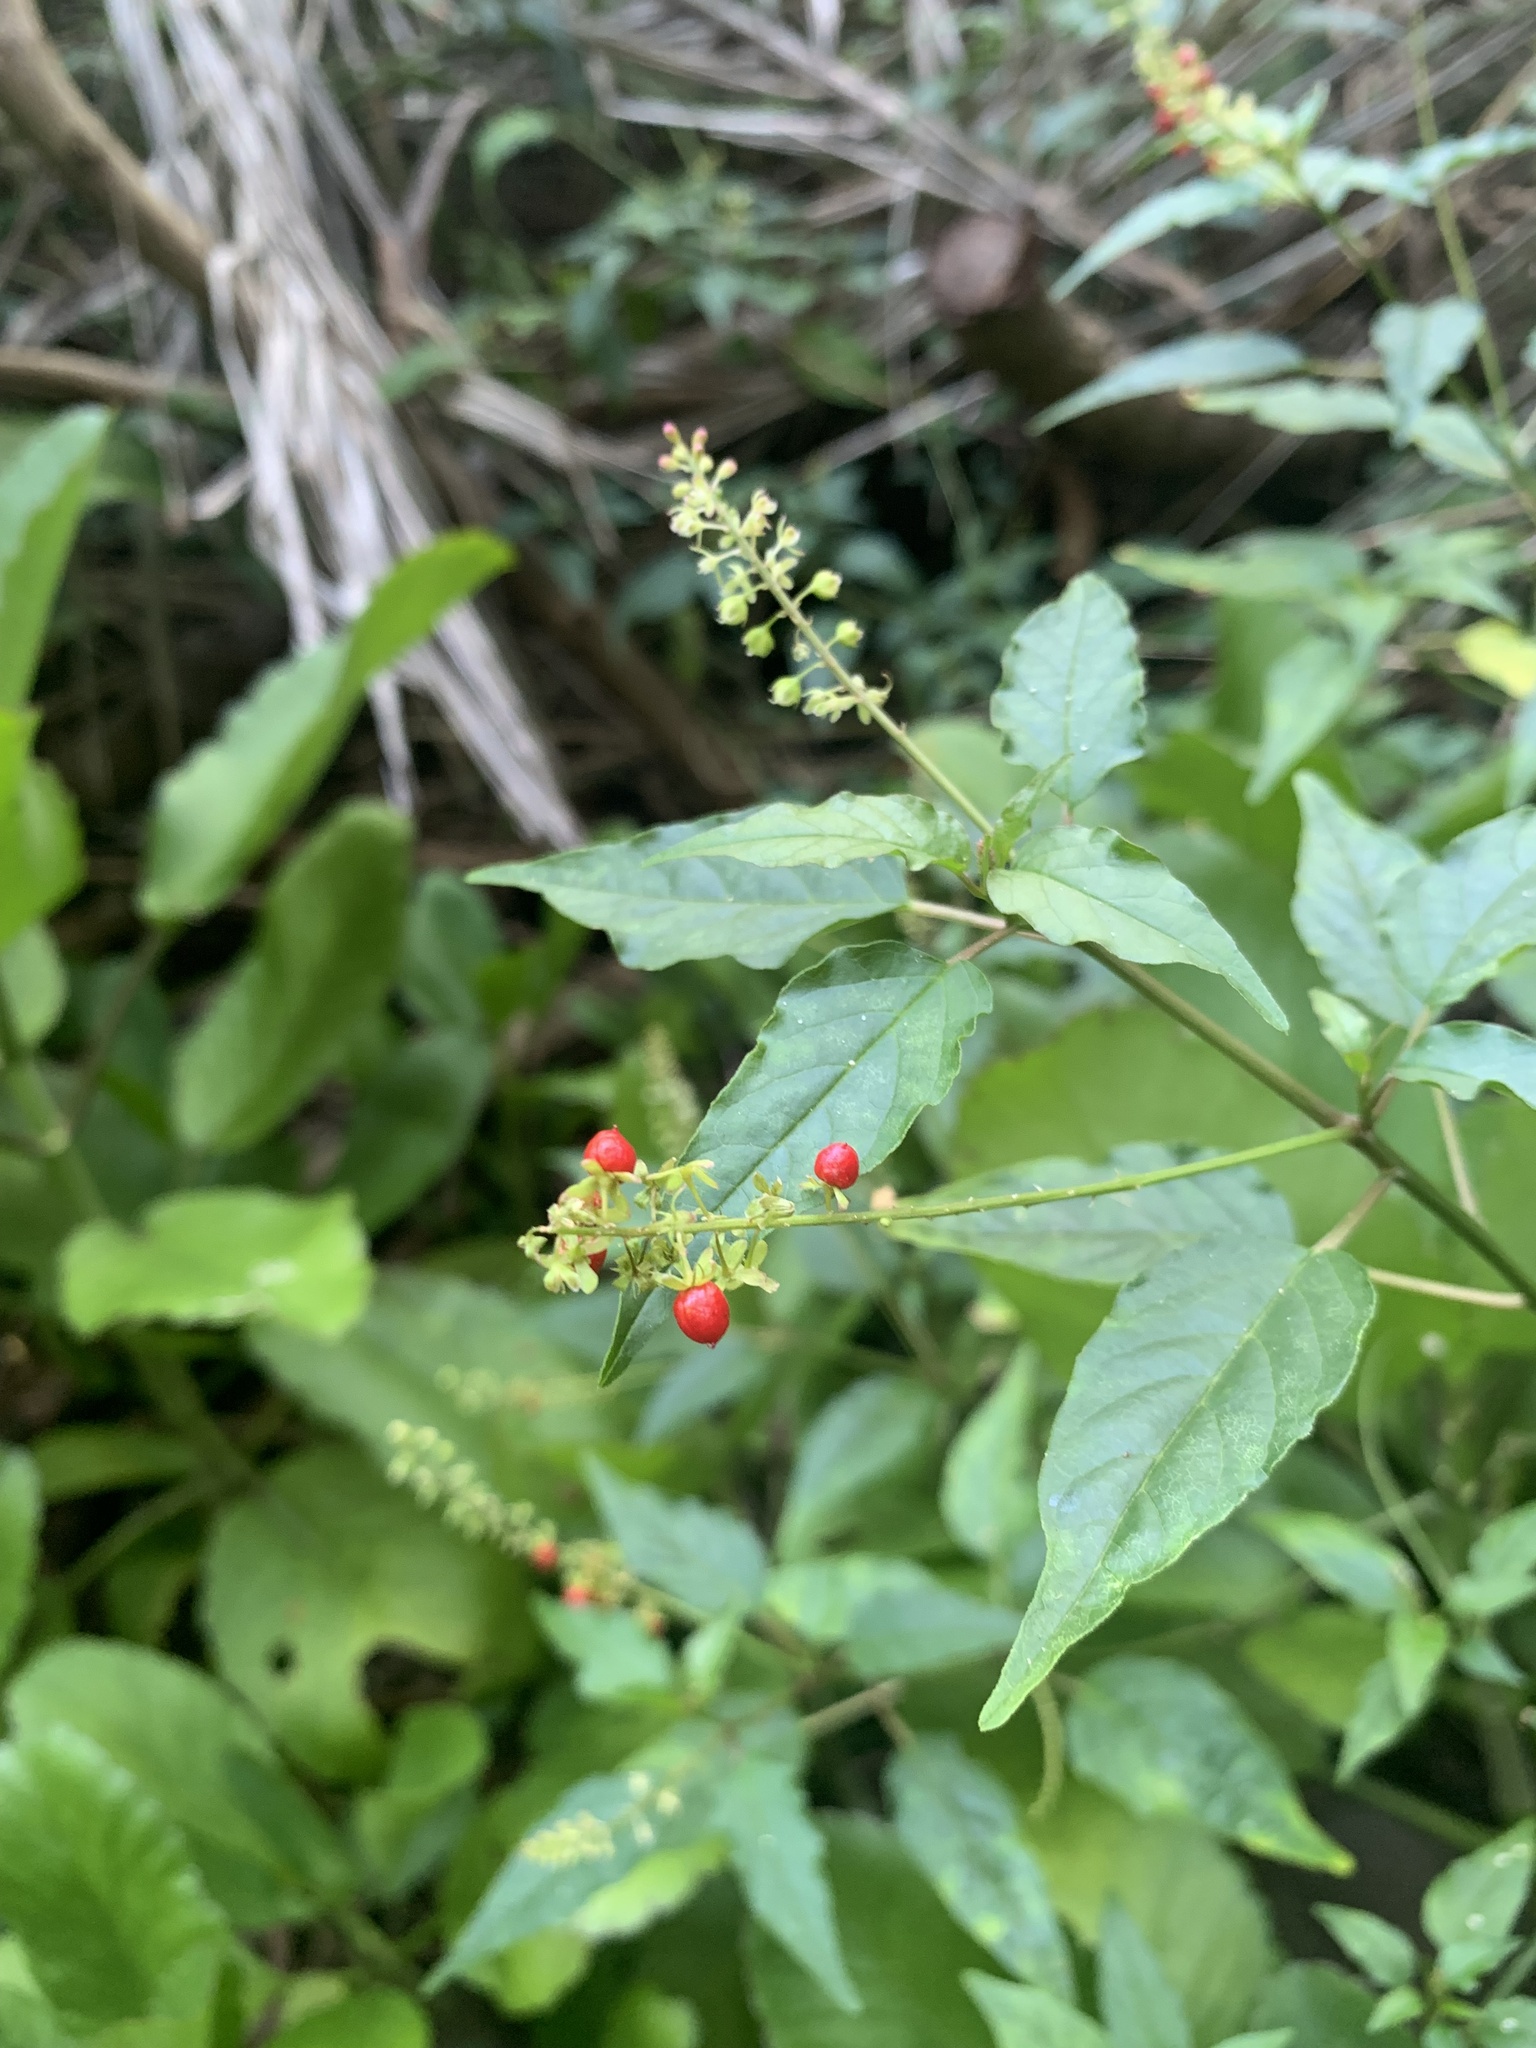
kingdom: Plantae
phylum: Tracheophyta
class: Magnoliopsida
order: Caryophyllales
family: Phytolaccaceae
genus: Rivina
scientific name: Rivina humilis
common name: Rougeplant
